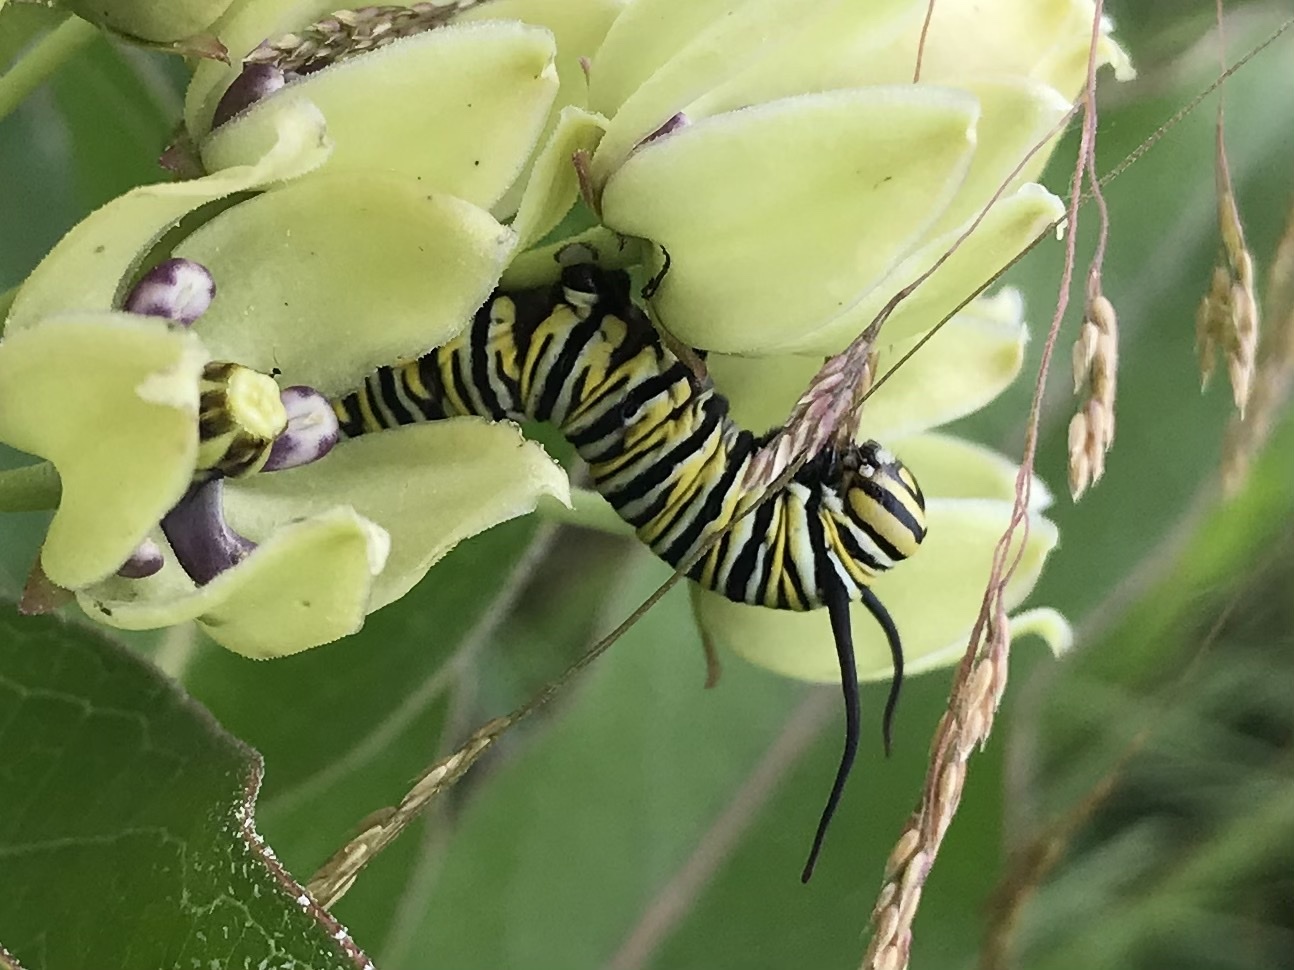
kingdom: Animalia
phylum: Arthropoda
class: Insecta
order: Lepidoptera
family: Nymphalidae
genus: Danaus
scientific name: Danaus plexippus
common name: Monarch
